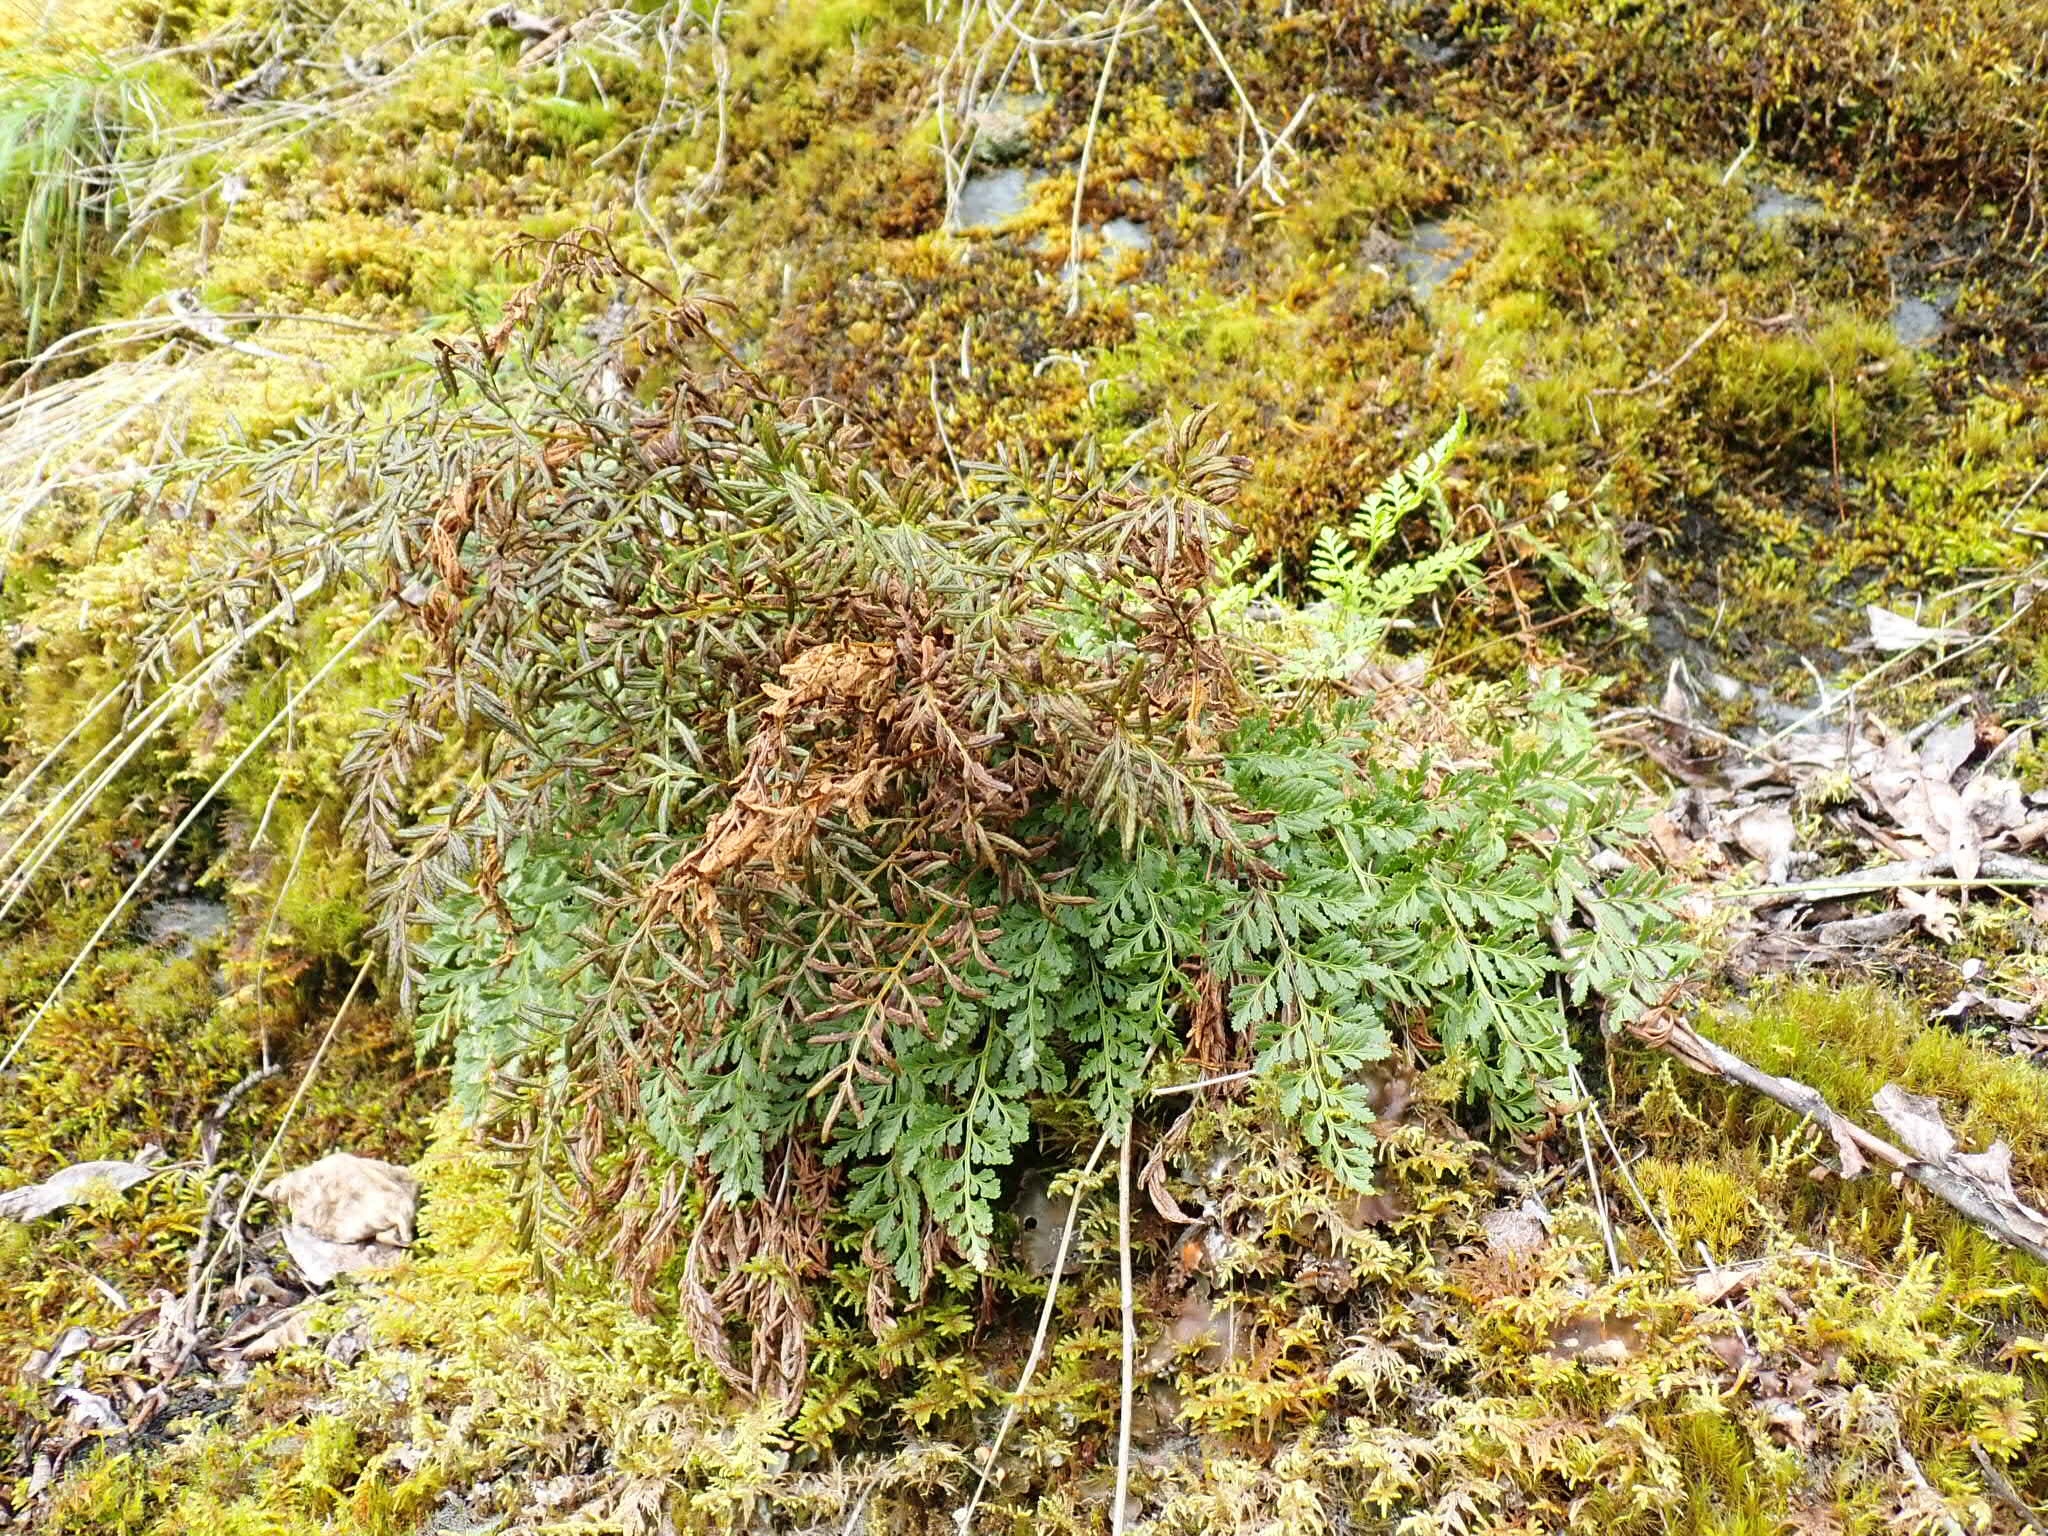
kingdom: Plantae
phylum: Tracheophyta
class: Polypodiopsida
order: Polypodiales
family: Pteridaceae
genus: Cryptogramma
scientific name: Cryptogramma sitchensis
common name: Alaska parsley fern
